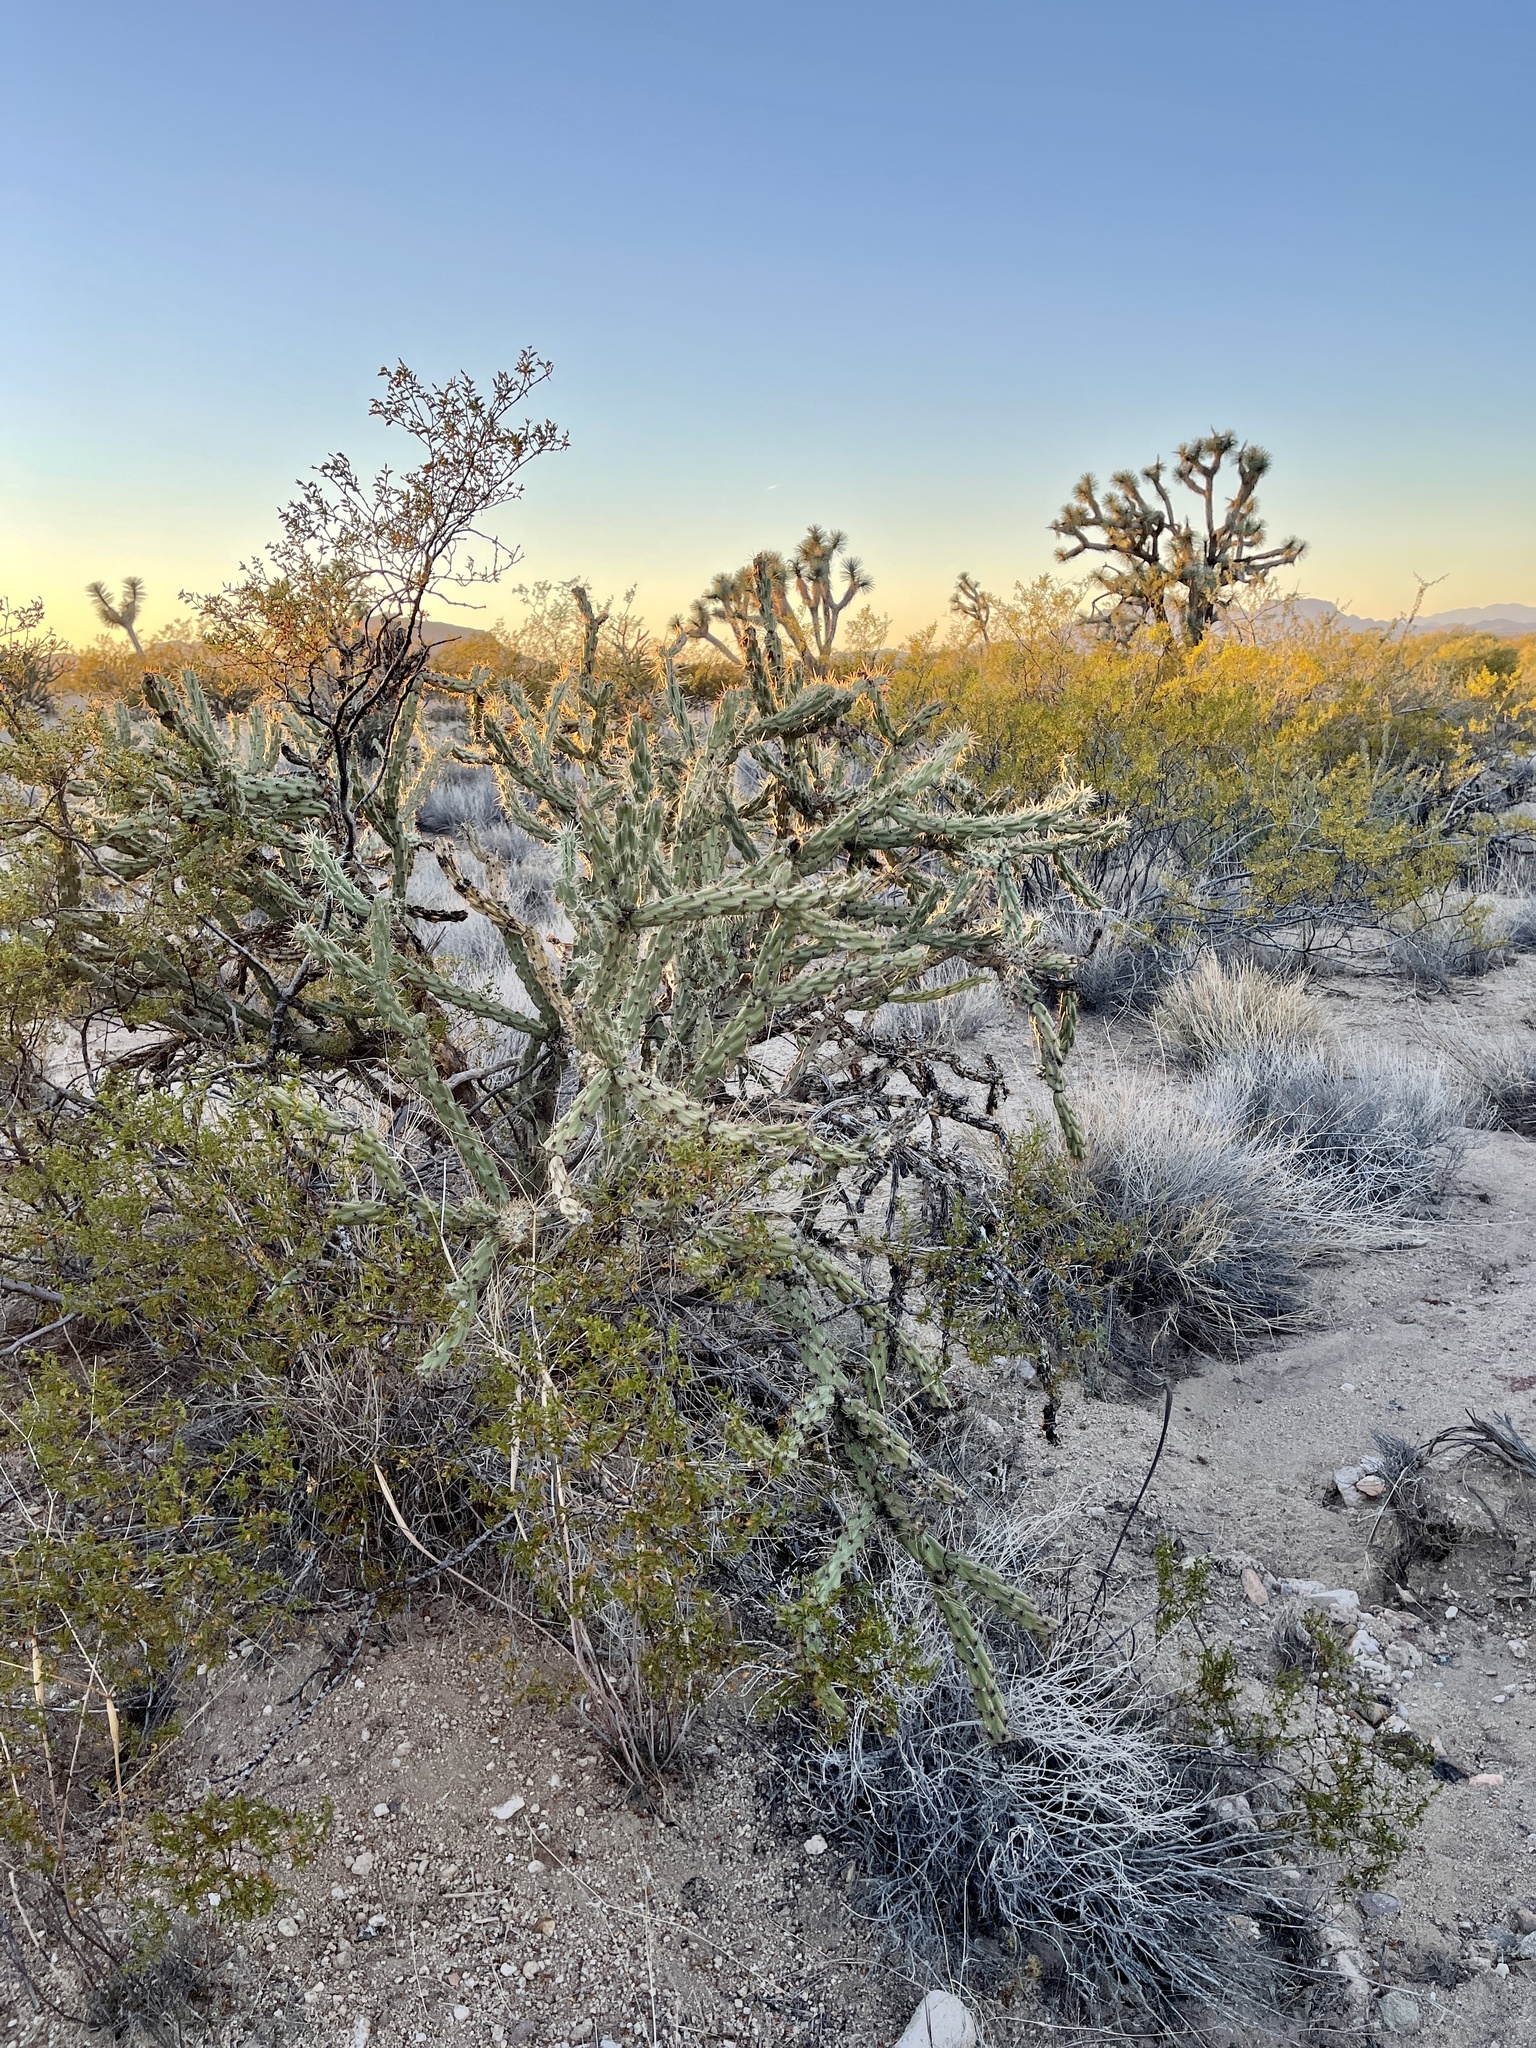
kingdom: Plantae
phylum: Tracheophyta
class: Magnoliopsida
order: Caryophyllales
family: Cactaceae
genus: Cylindropuntia
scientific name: Cylindropuntia acanthocarpa
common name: Buckhorn cholla
